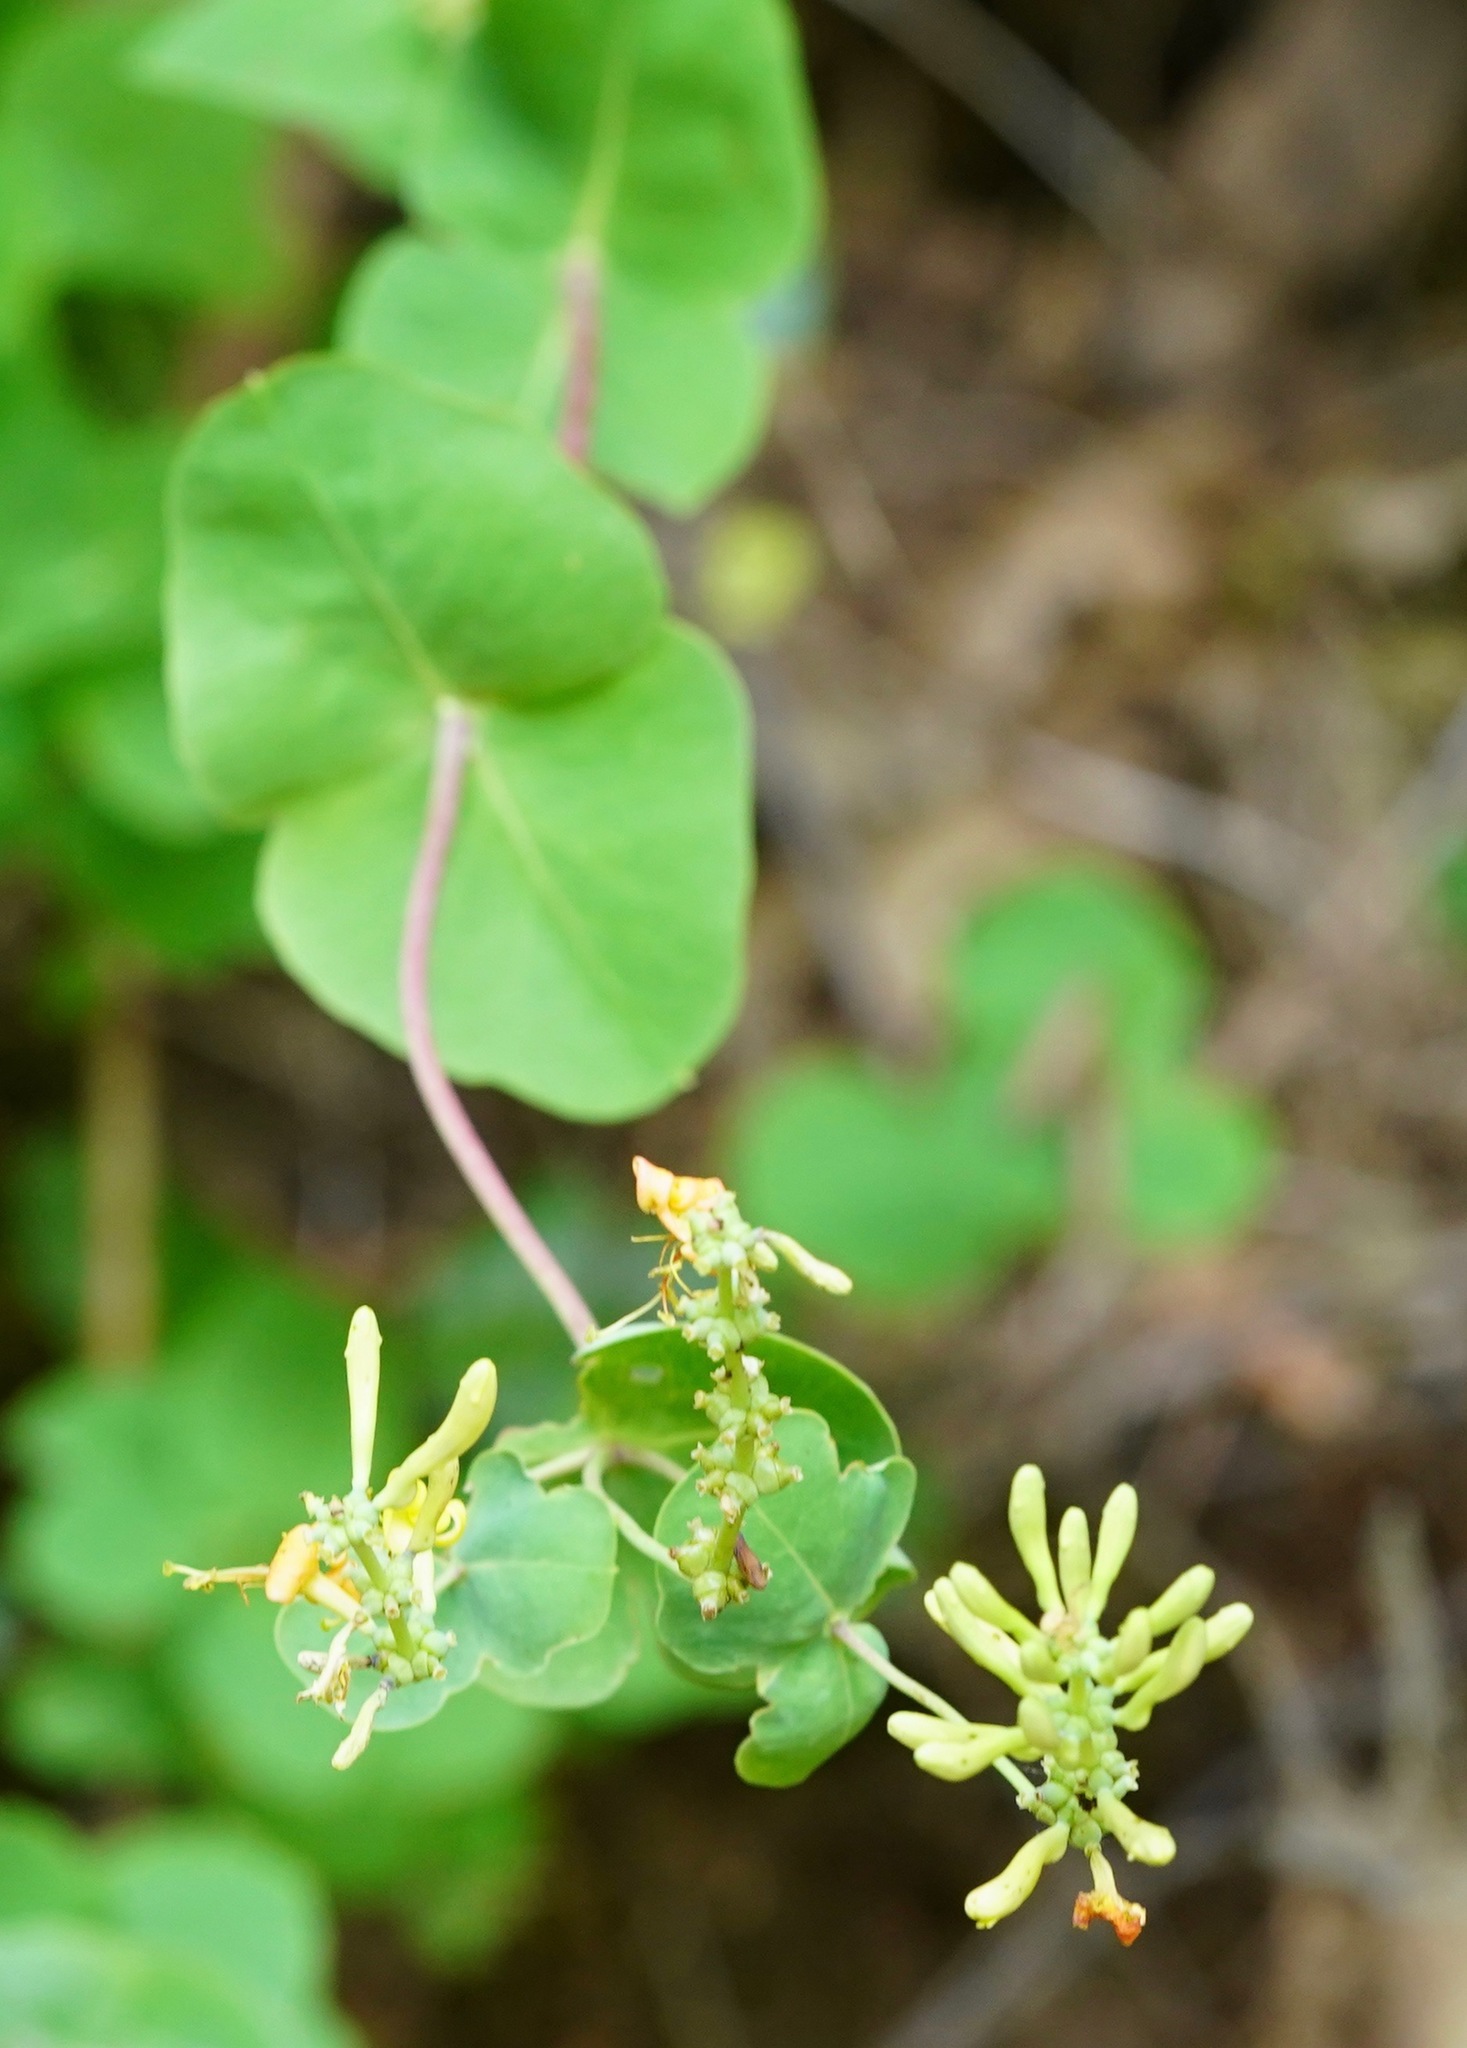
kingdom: Plantae
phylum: Tracheophyta
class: Magnoliopsida
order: Dipsacales
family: Caprifoliaceae
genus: Lonicera
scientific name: Lonicera interrupta
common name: Chaparral honeysuckle
